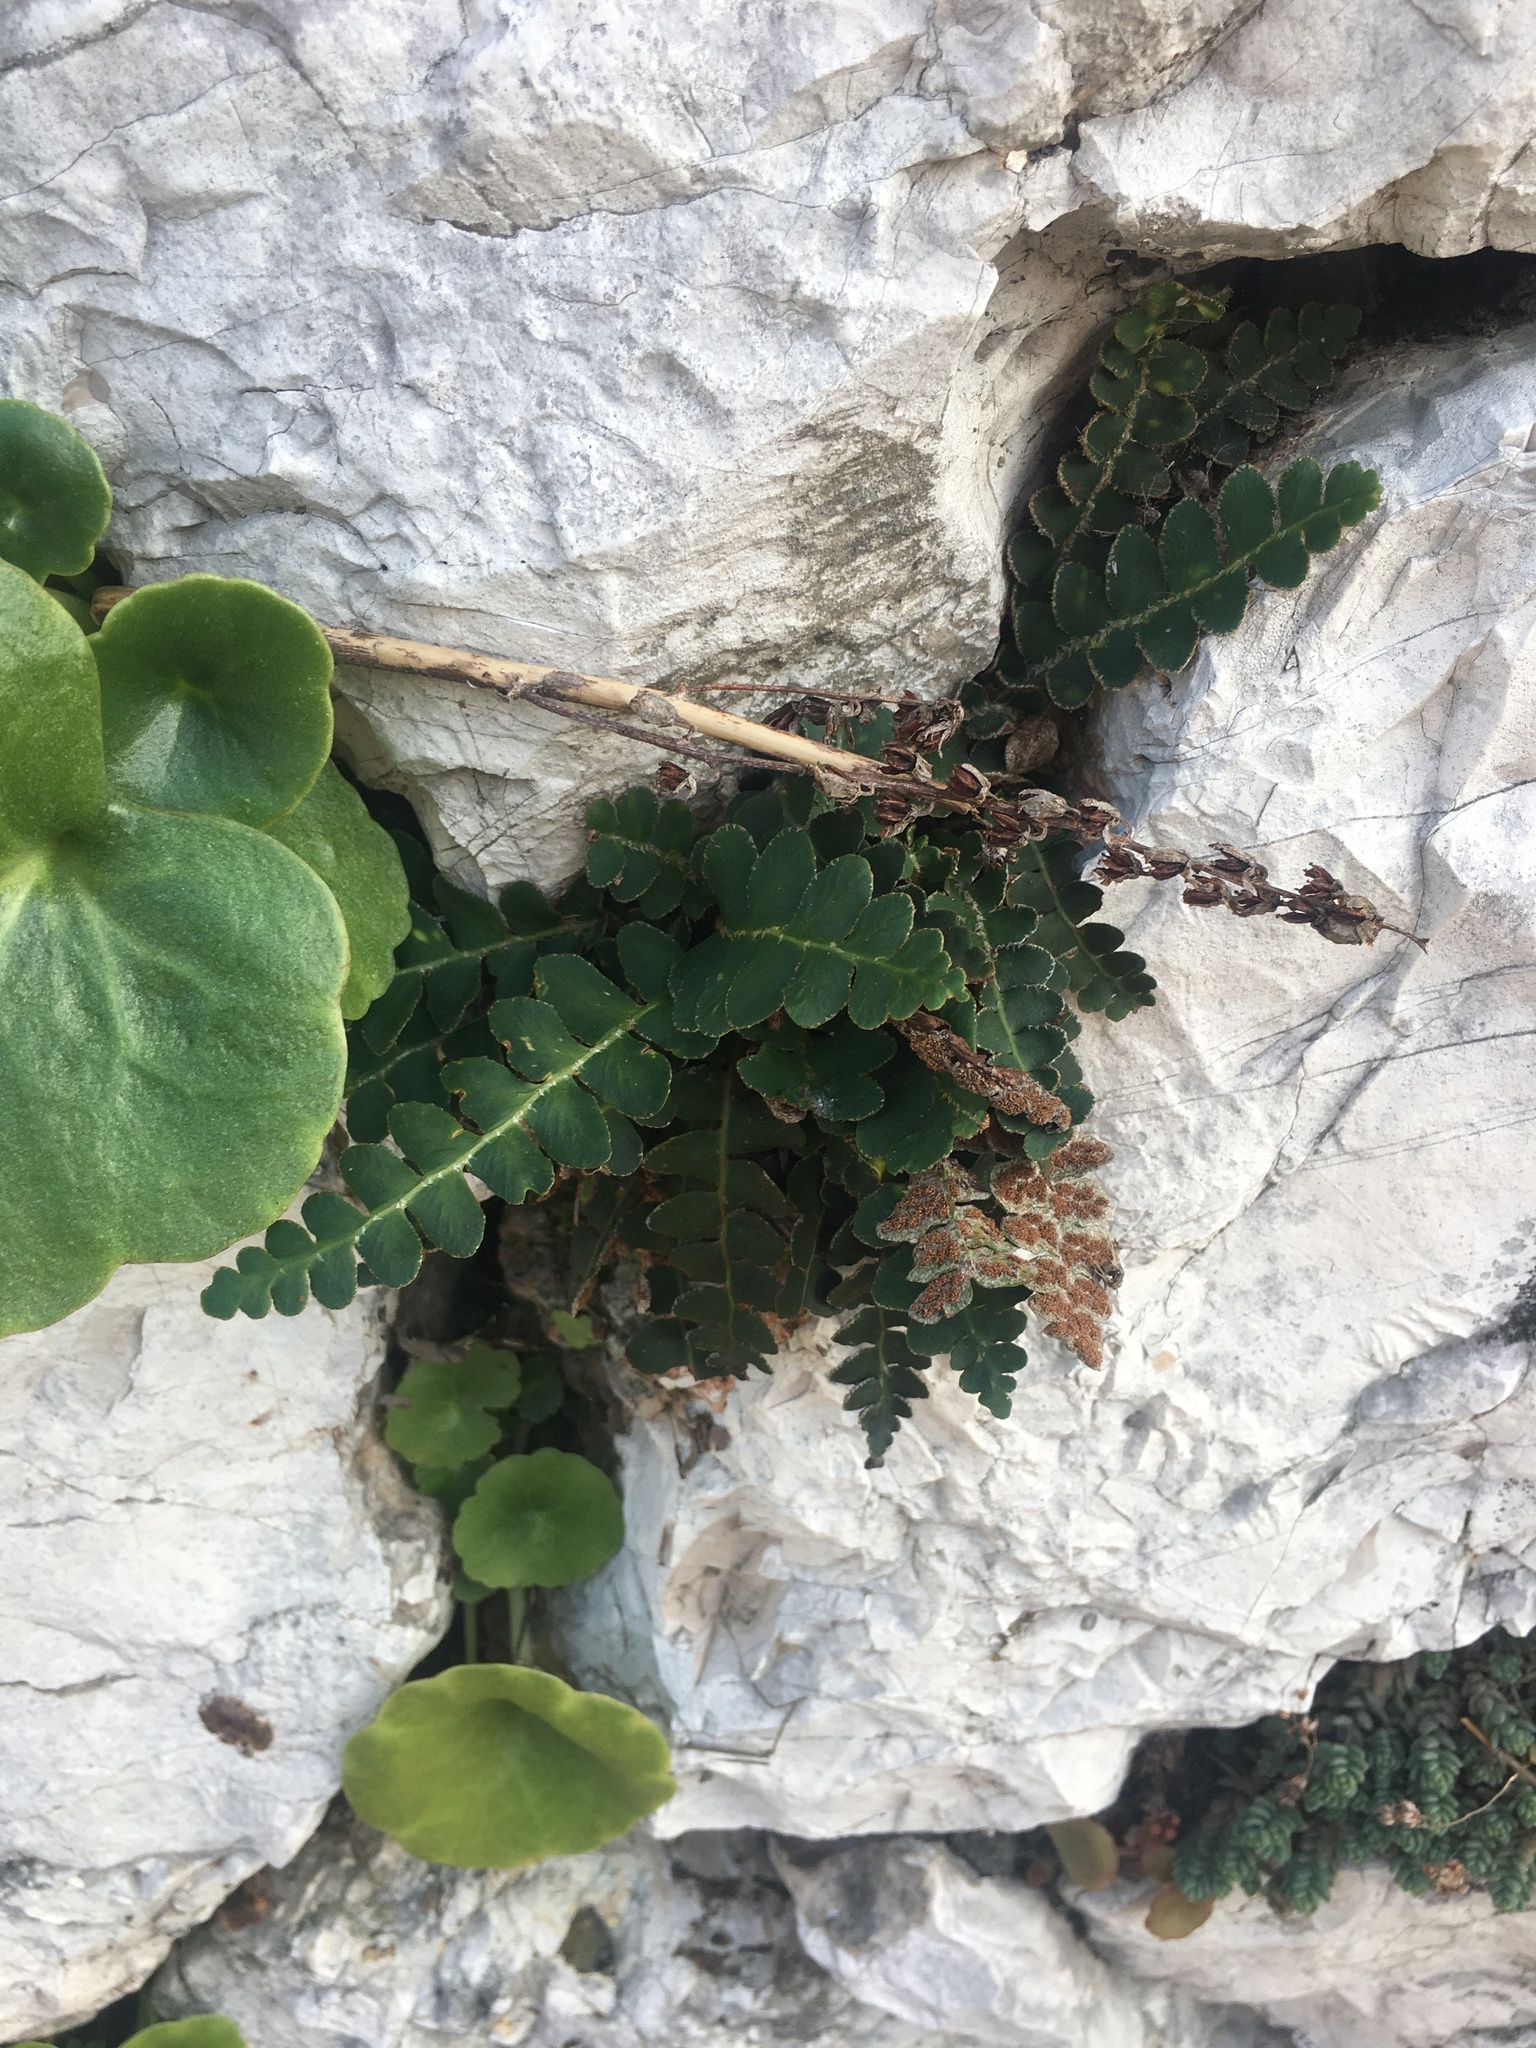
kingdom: Plantae
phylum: Tracheophyta
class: Polypodiopsida
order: Polypodiales
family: Aspleniaceae
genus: Asplenium
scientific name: Asplenium ceterach
